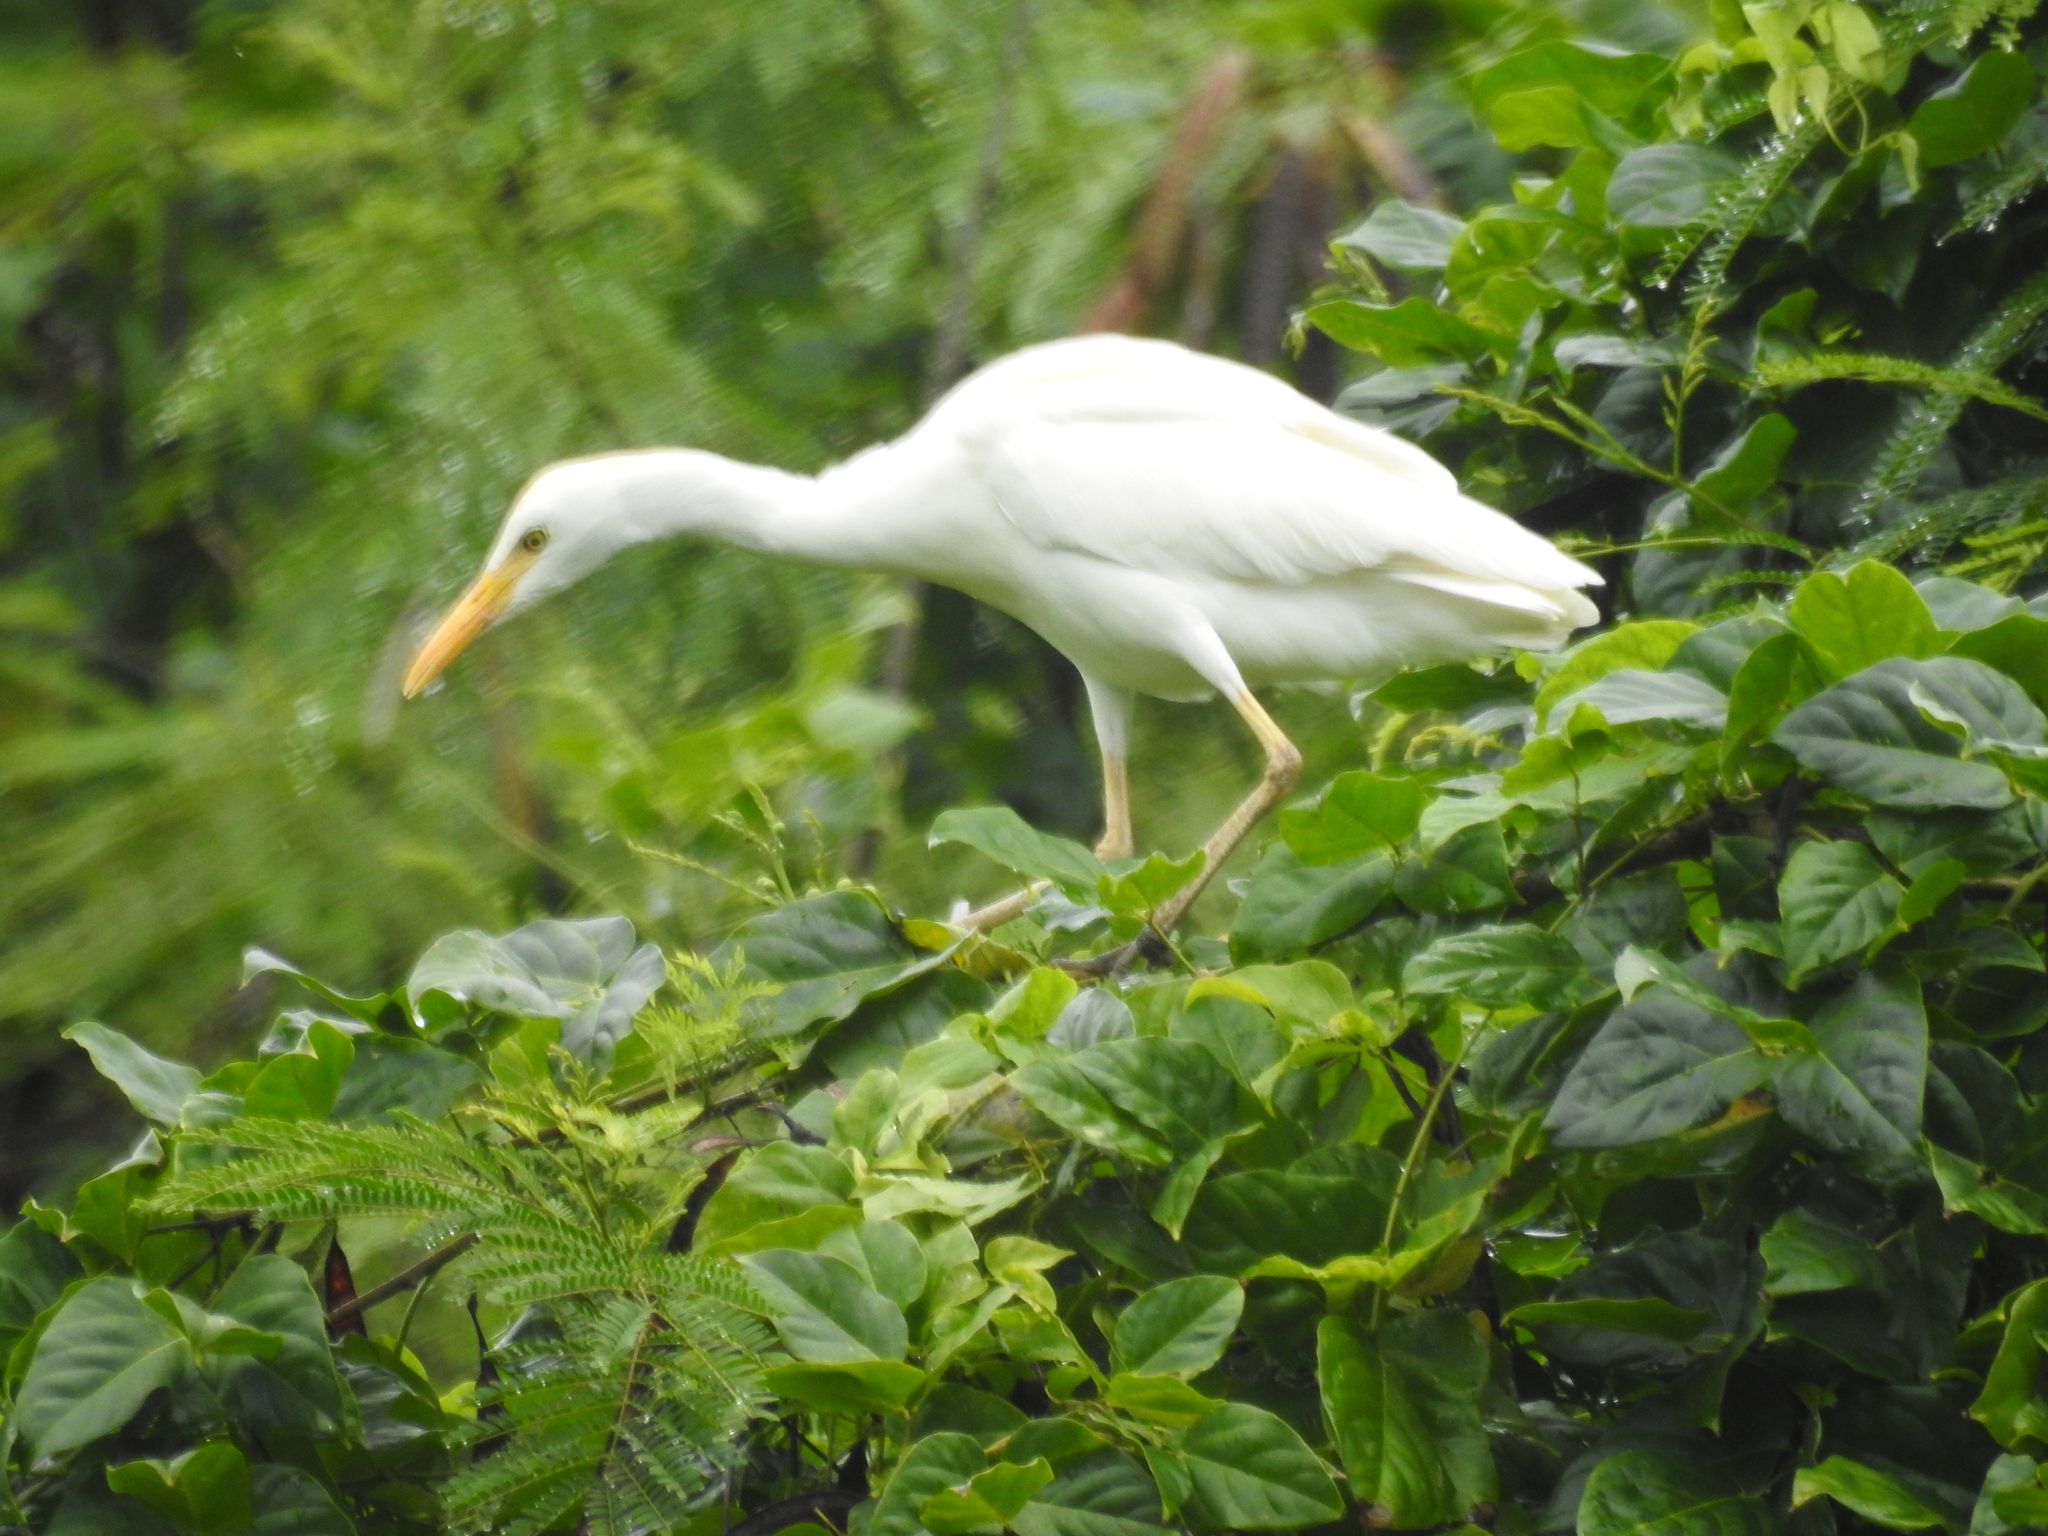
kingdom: Animalia
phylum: Chordata
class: Aves
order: Pelecaniformes
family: Ardeidae
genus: Bubulcus
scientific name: Bubulcus ibis
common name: Cattle egret
